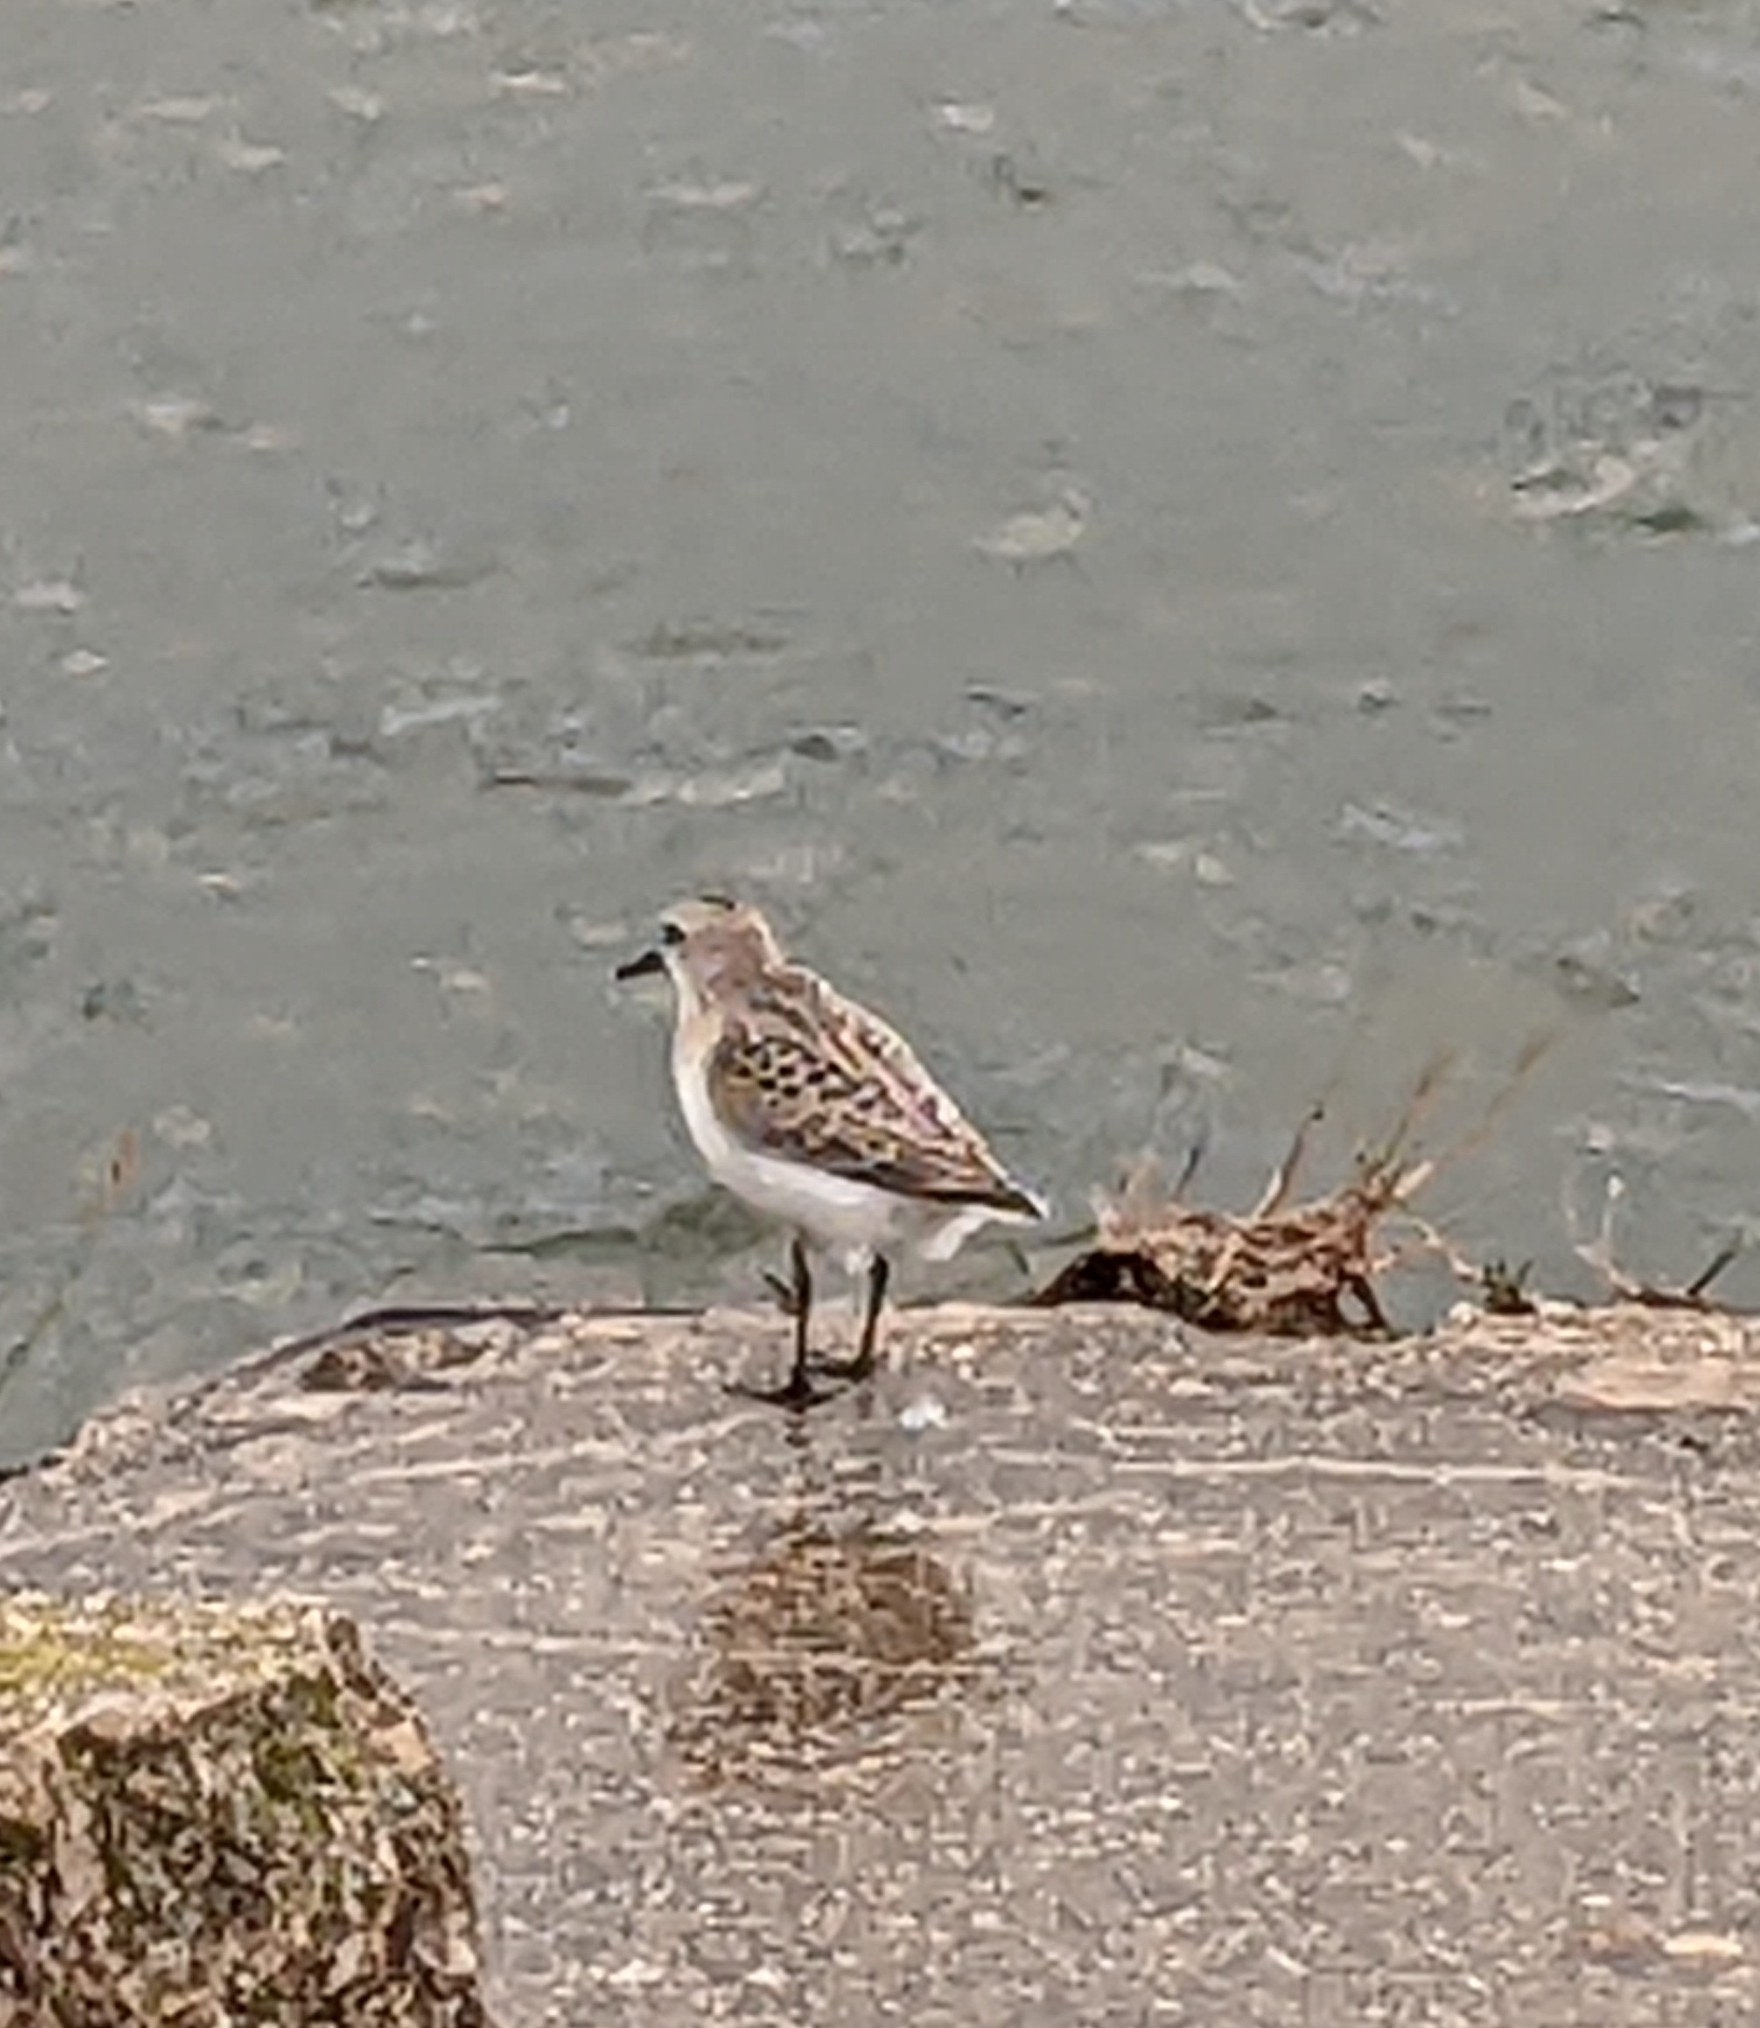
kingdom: Animalia
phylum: Chordata
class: Aves
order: Charadriiformes
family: Scolopacidae
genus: Calidris
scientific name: Calidris pusilla
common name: Semipalmated sandpiper
